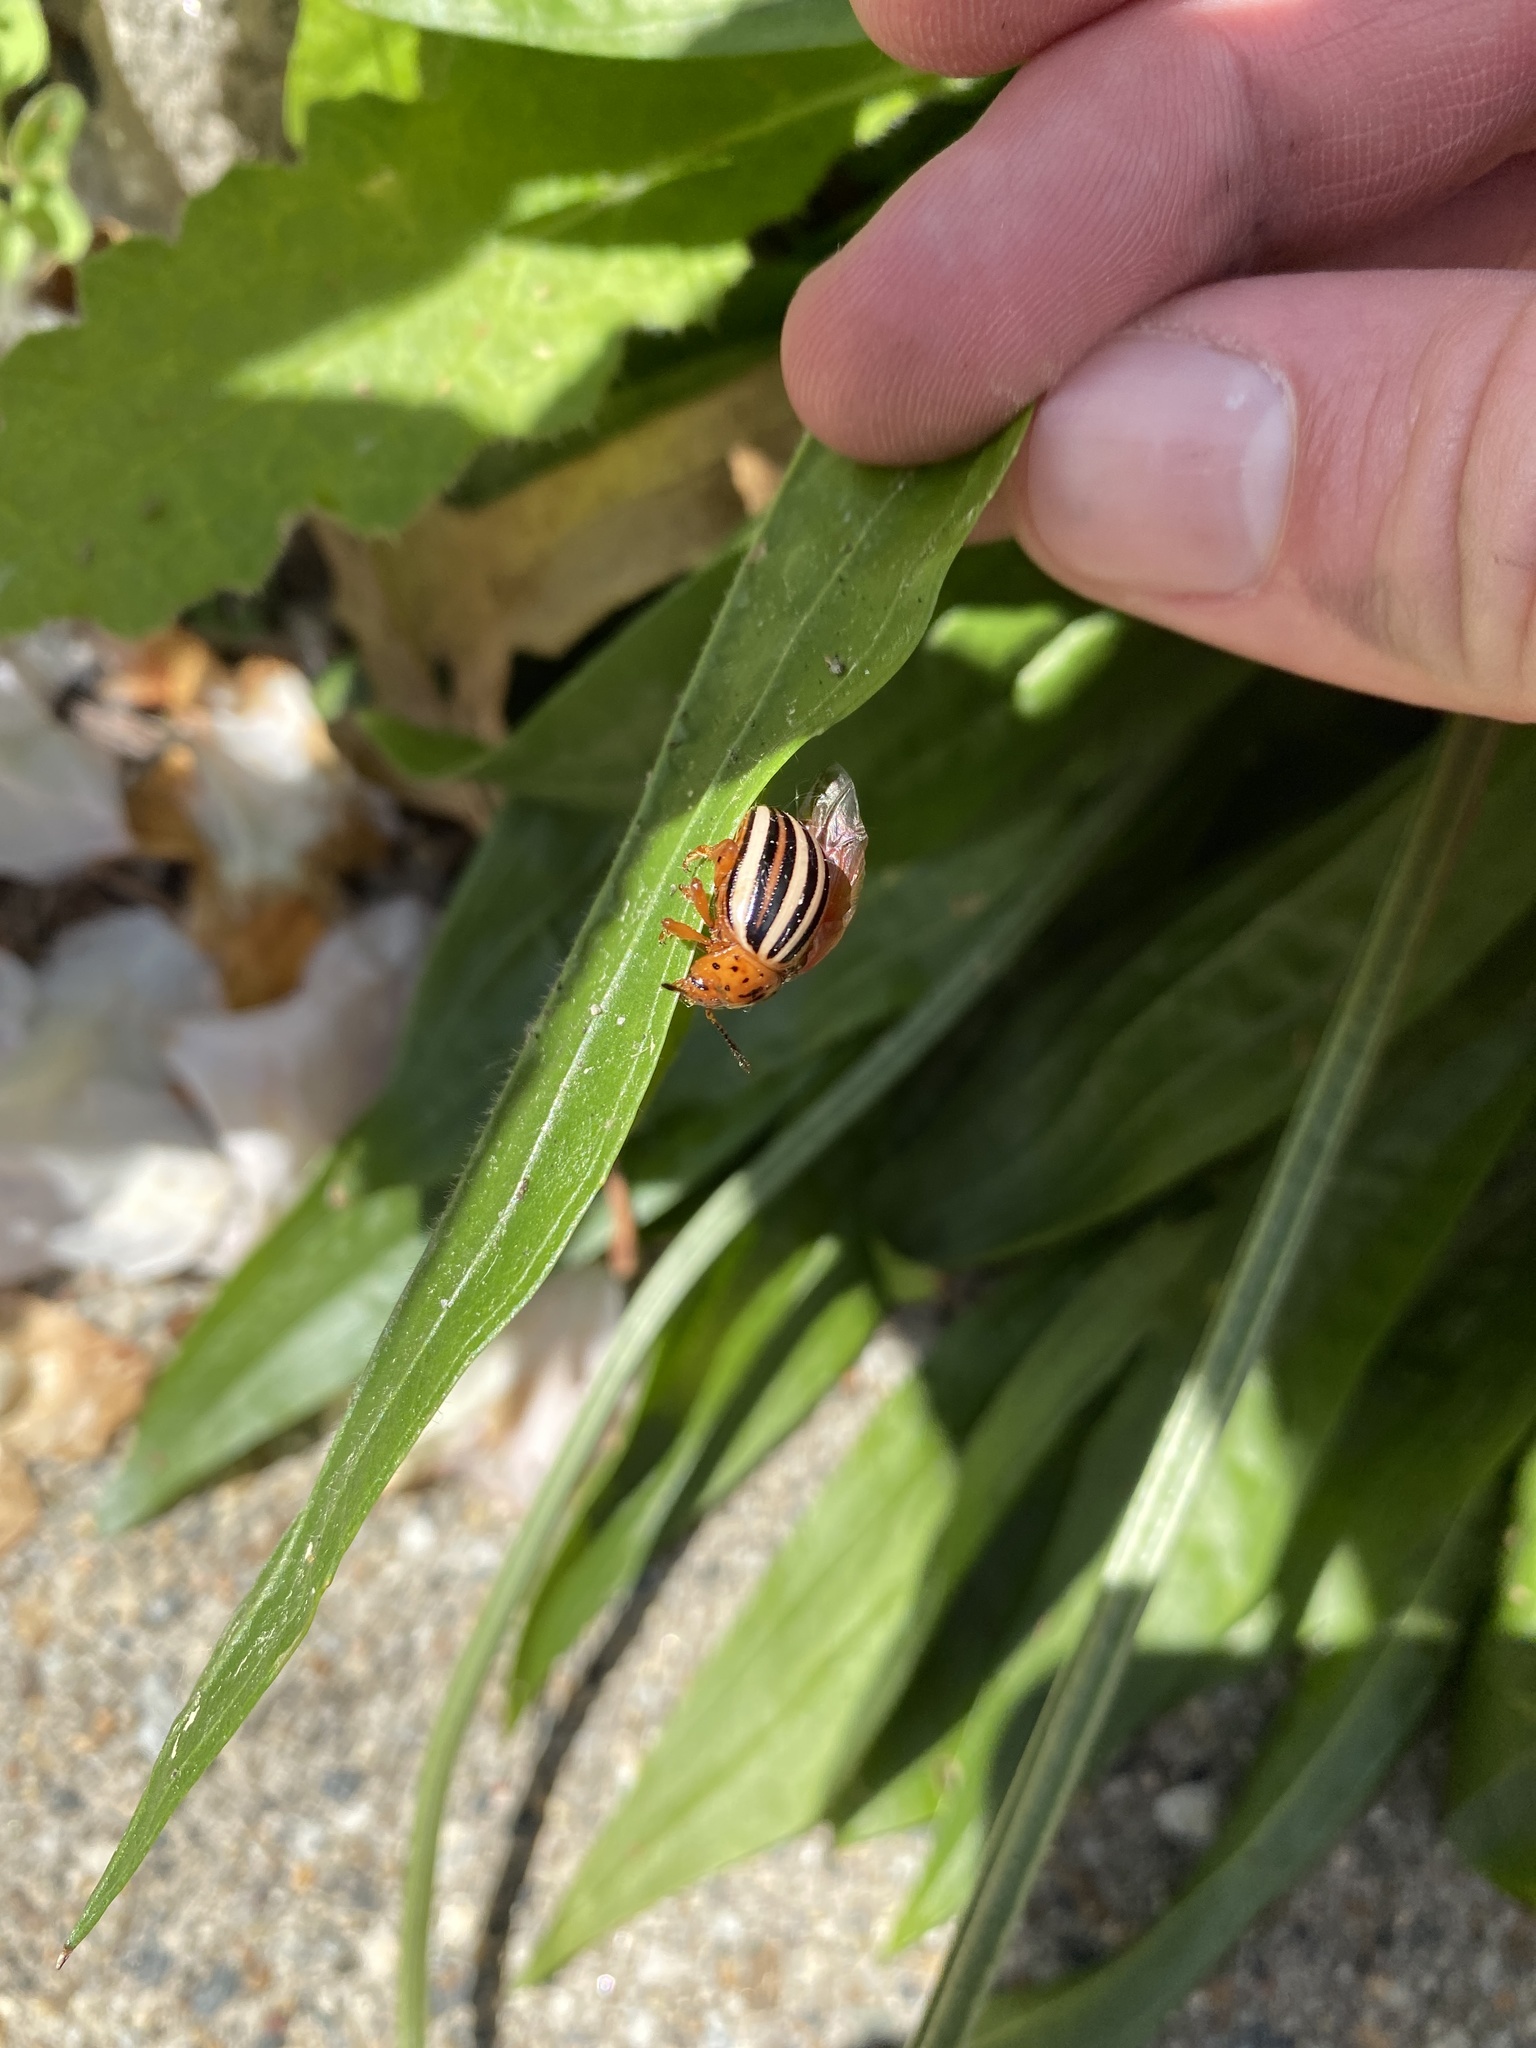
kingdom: Animalia
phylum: Arthropoda
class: Insecta
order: Coleoptera
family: Chrysomelidae
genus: Leptinotarsa
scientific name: Leptinotarsa juncta
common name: False potato beetle
